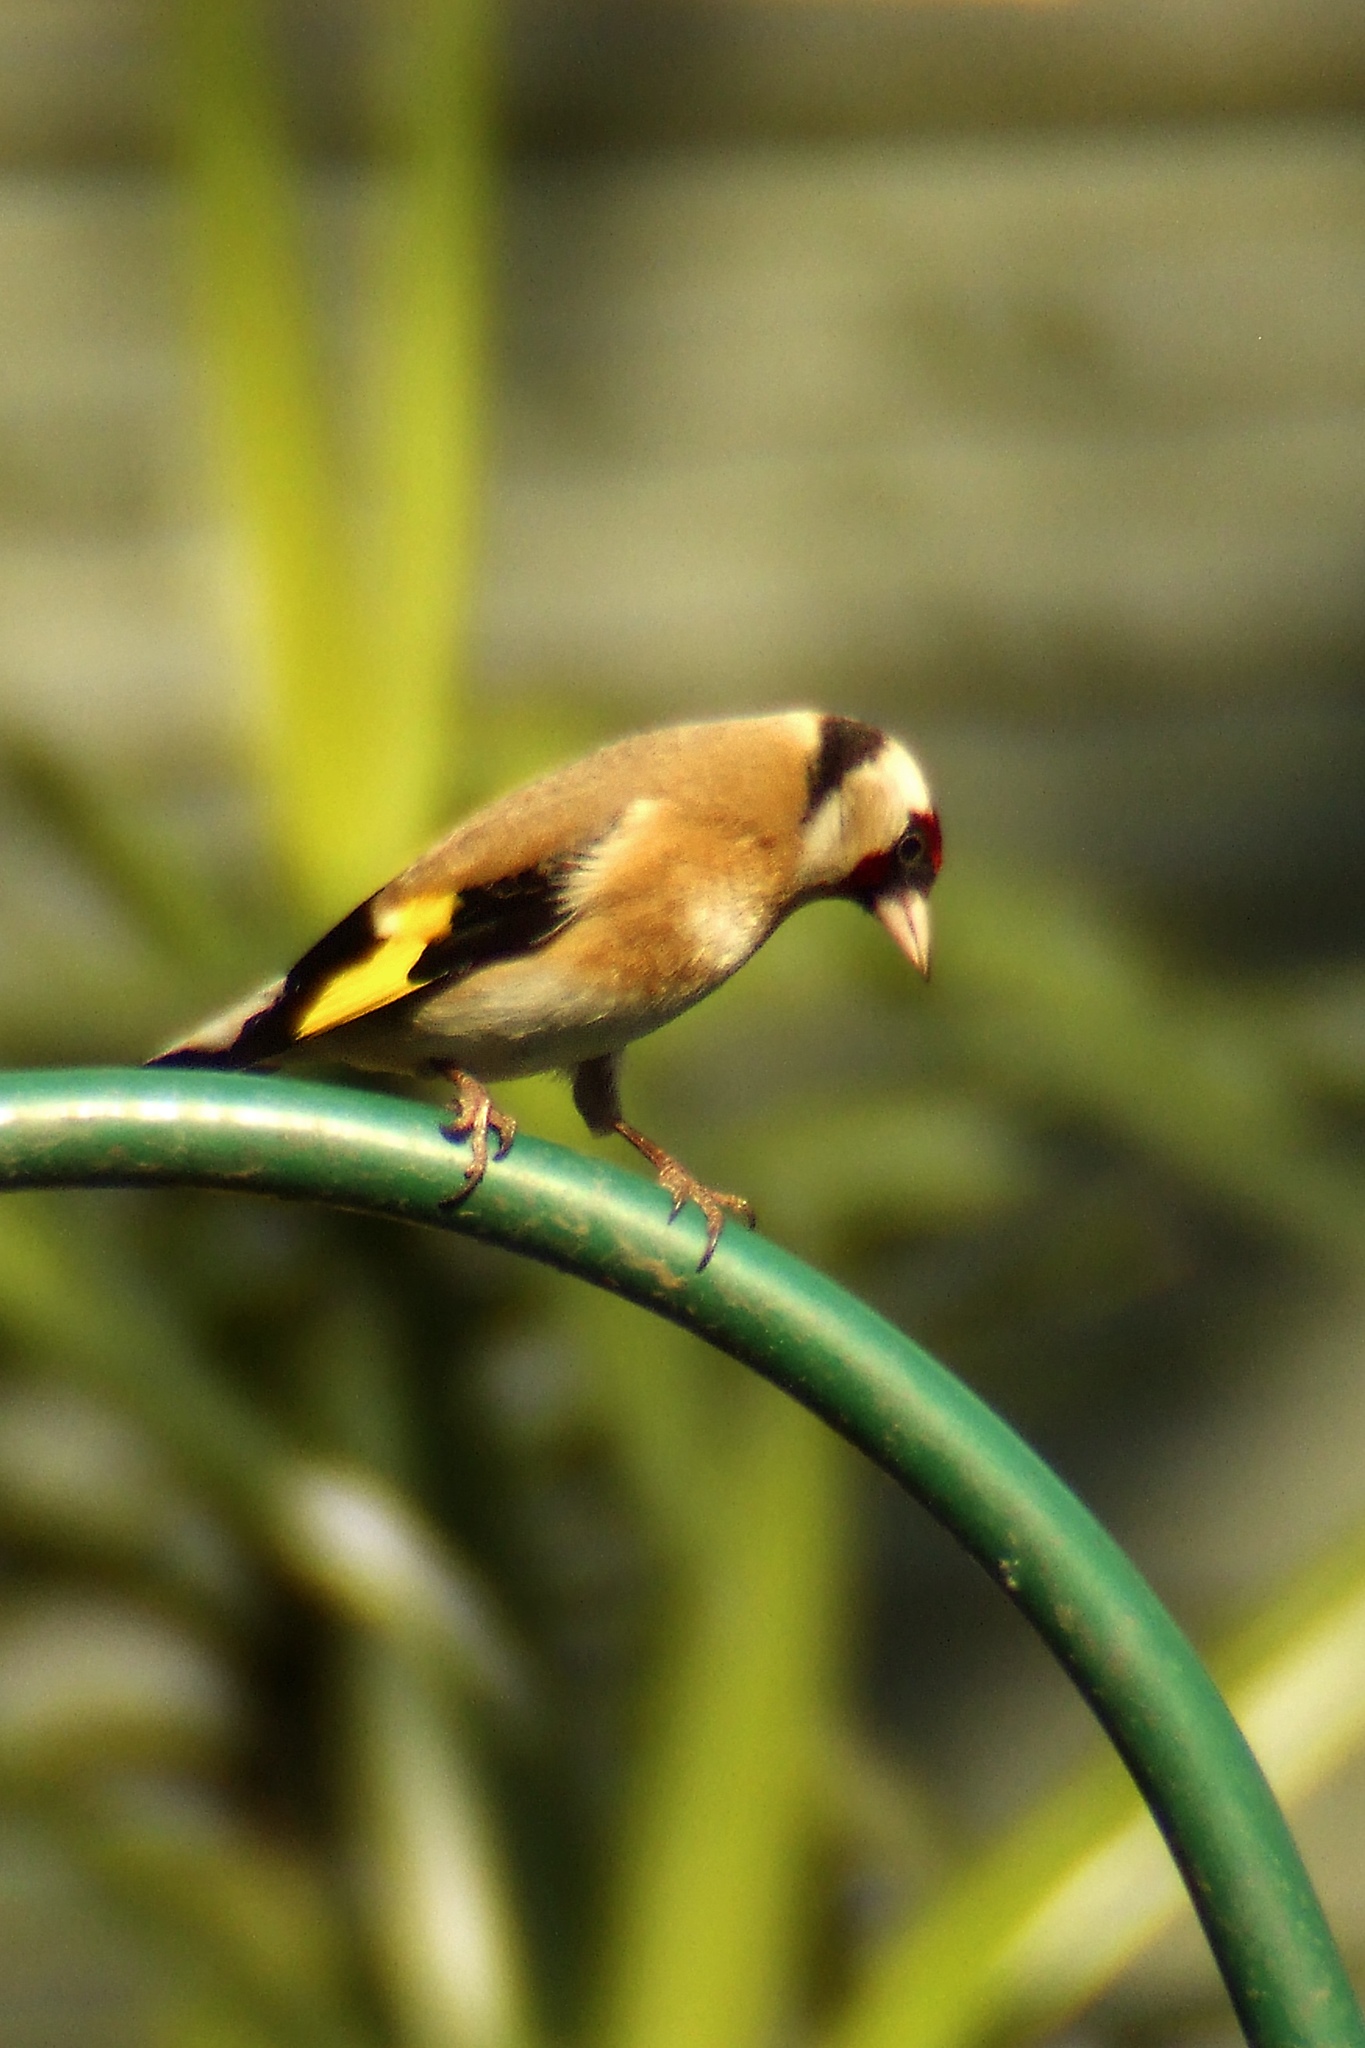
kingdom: Animalia
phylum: Chordata
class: Aves
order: Passeriformes
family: Fringillidae
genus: Carduelis
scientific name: Carduelis carduelis
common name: European goldfinch
